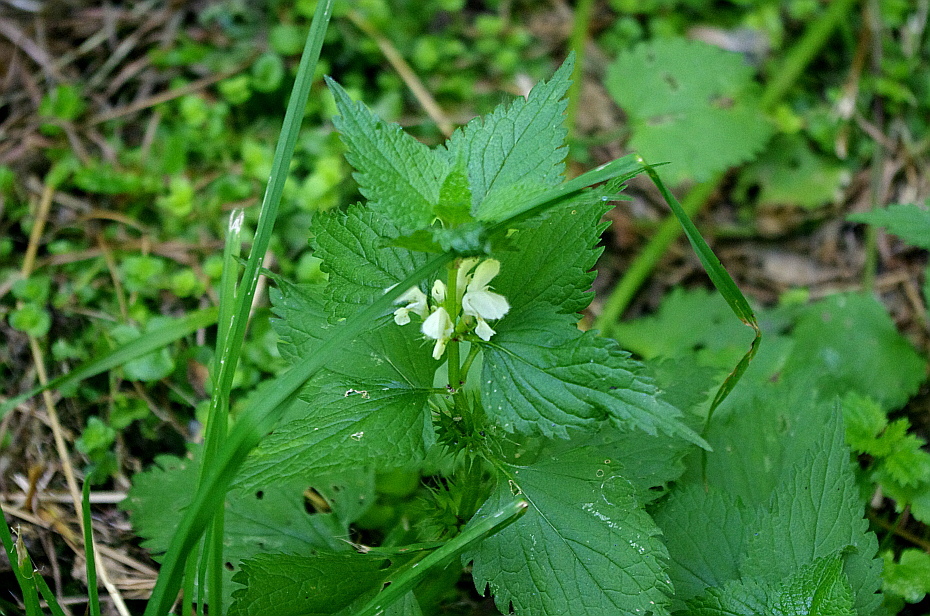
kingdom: Plantae
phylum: Tracheophyta
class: Magnoliopsida
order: Lamiales
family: Lamiaceae
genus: Lamium
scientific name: Lamium album
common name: White dead-nettle
